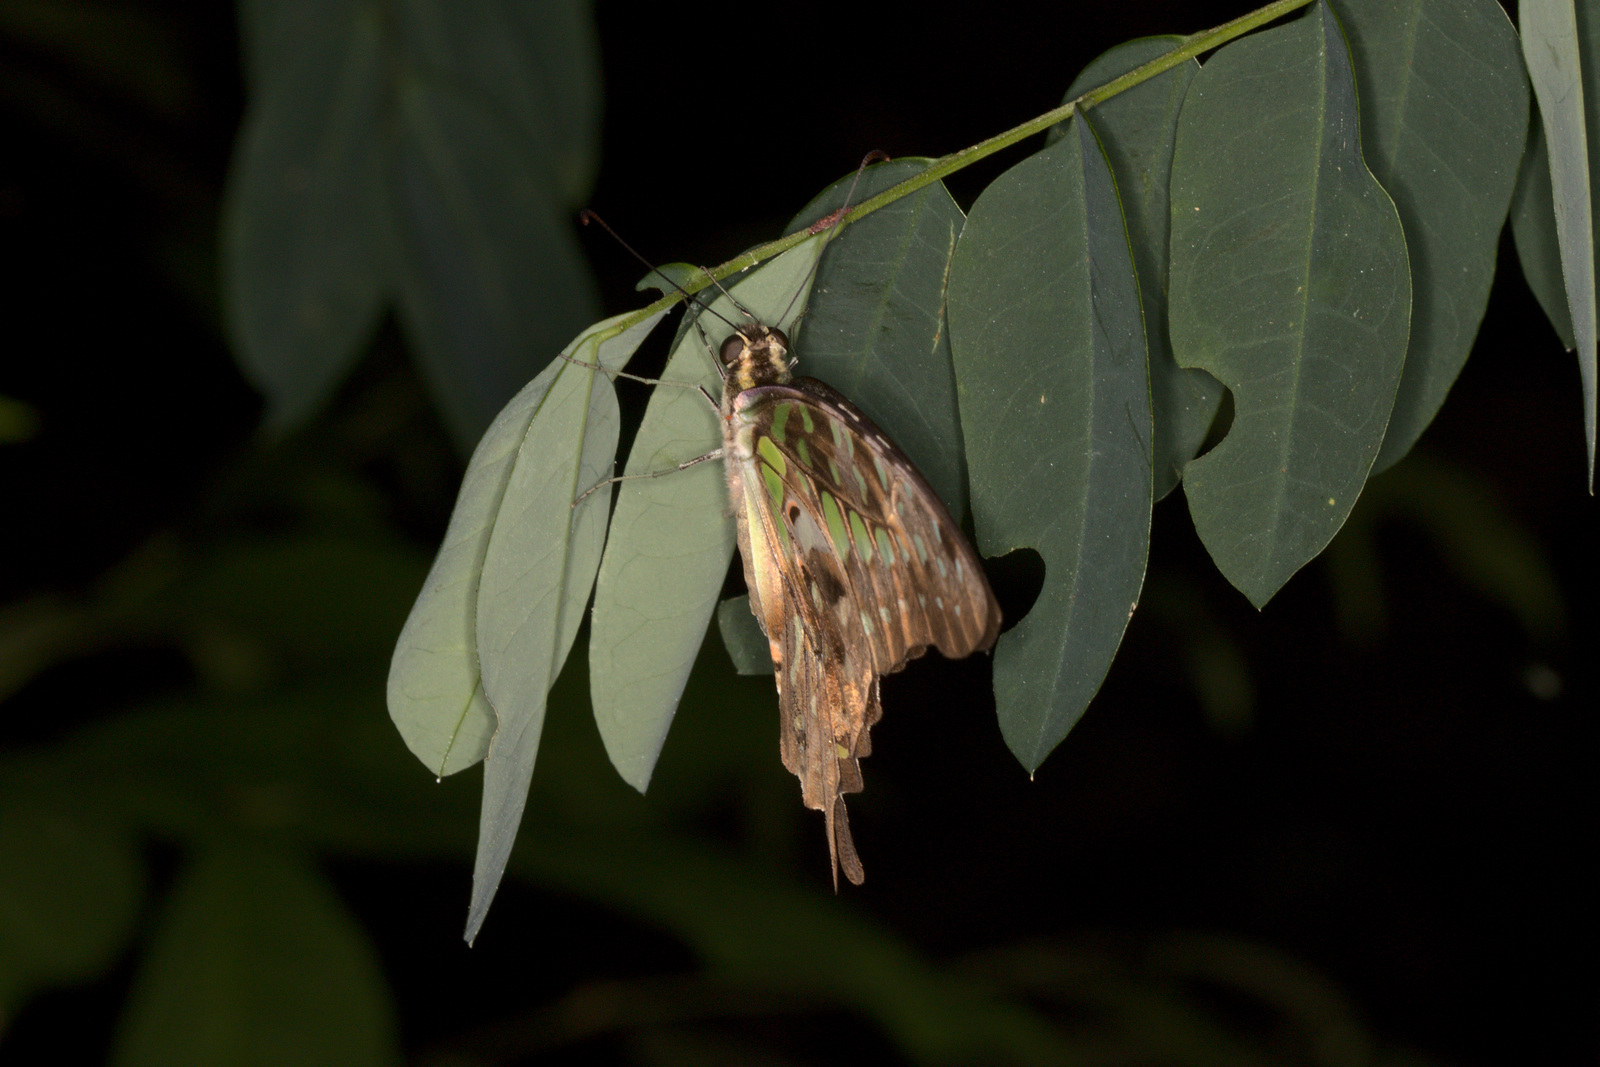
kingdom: Animalia
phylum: Arthropoda
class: Insecta
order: Lepidoptera
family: Papilionidae
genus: Graphium
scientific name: Graphium agamemnon
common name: Tailed jay
